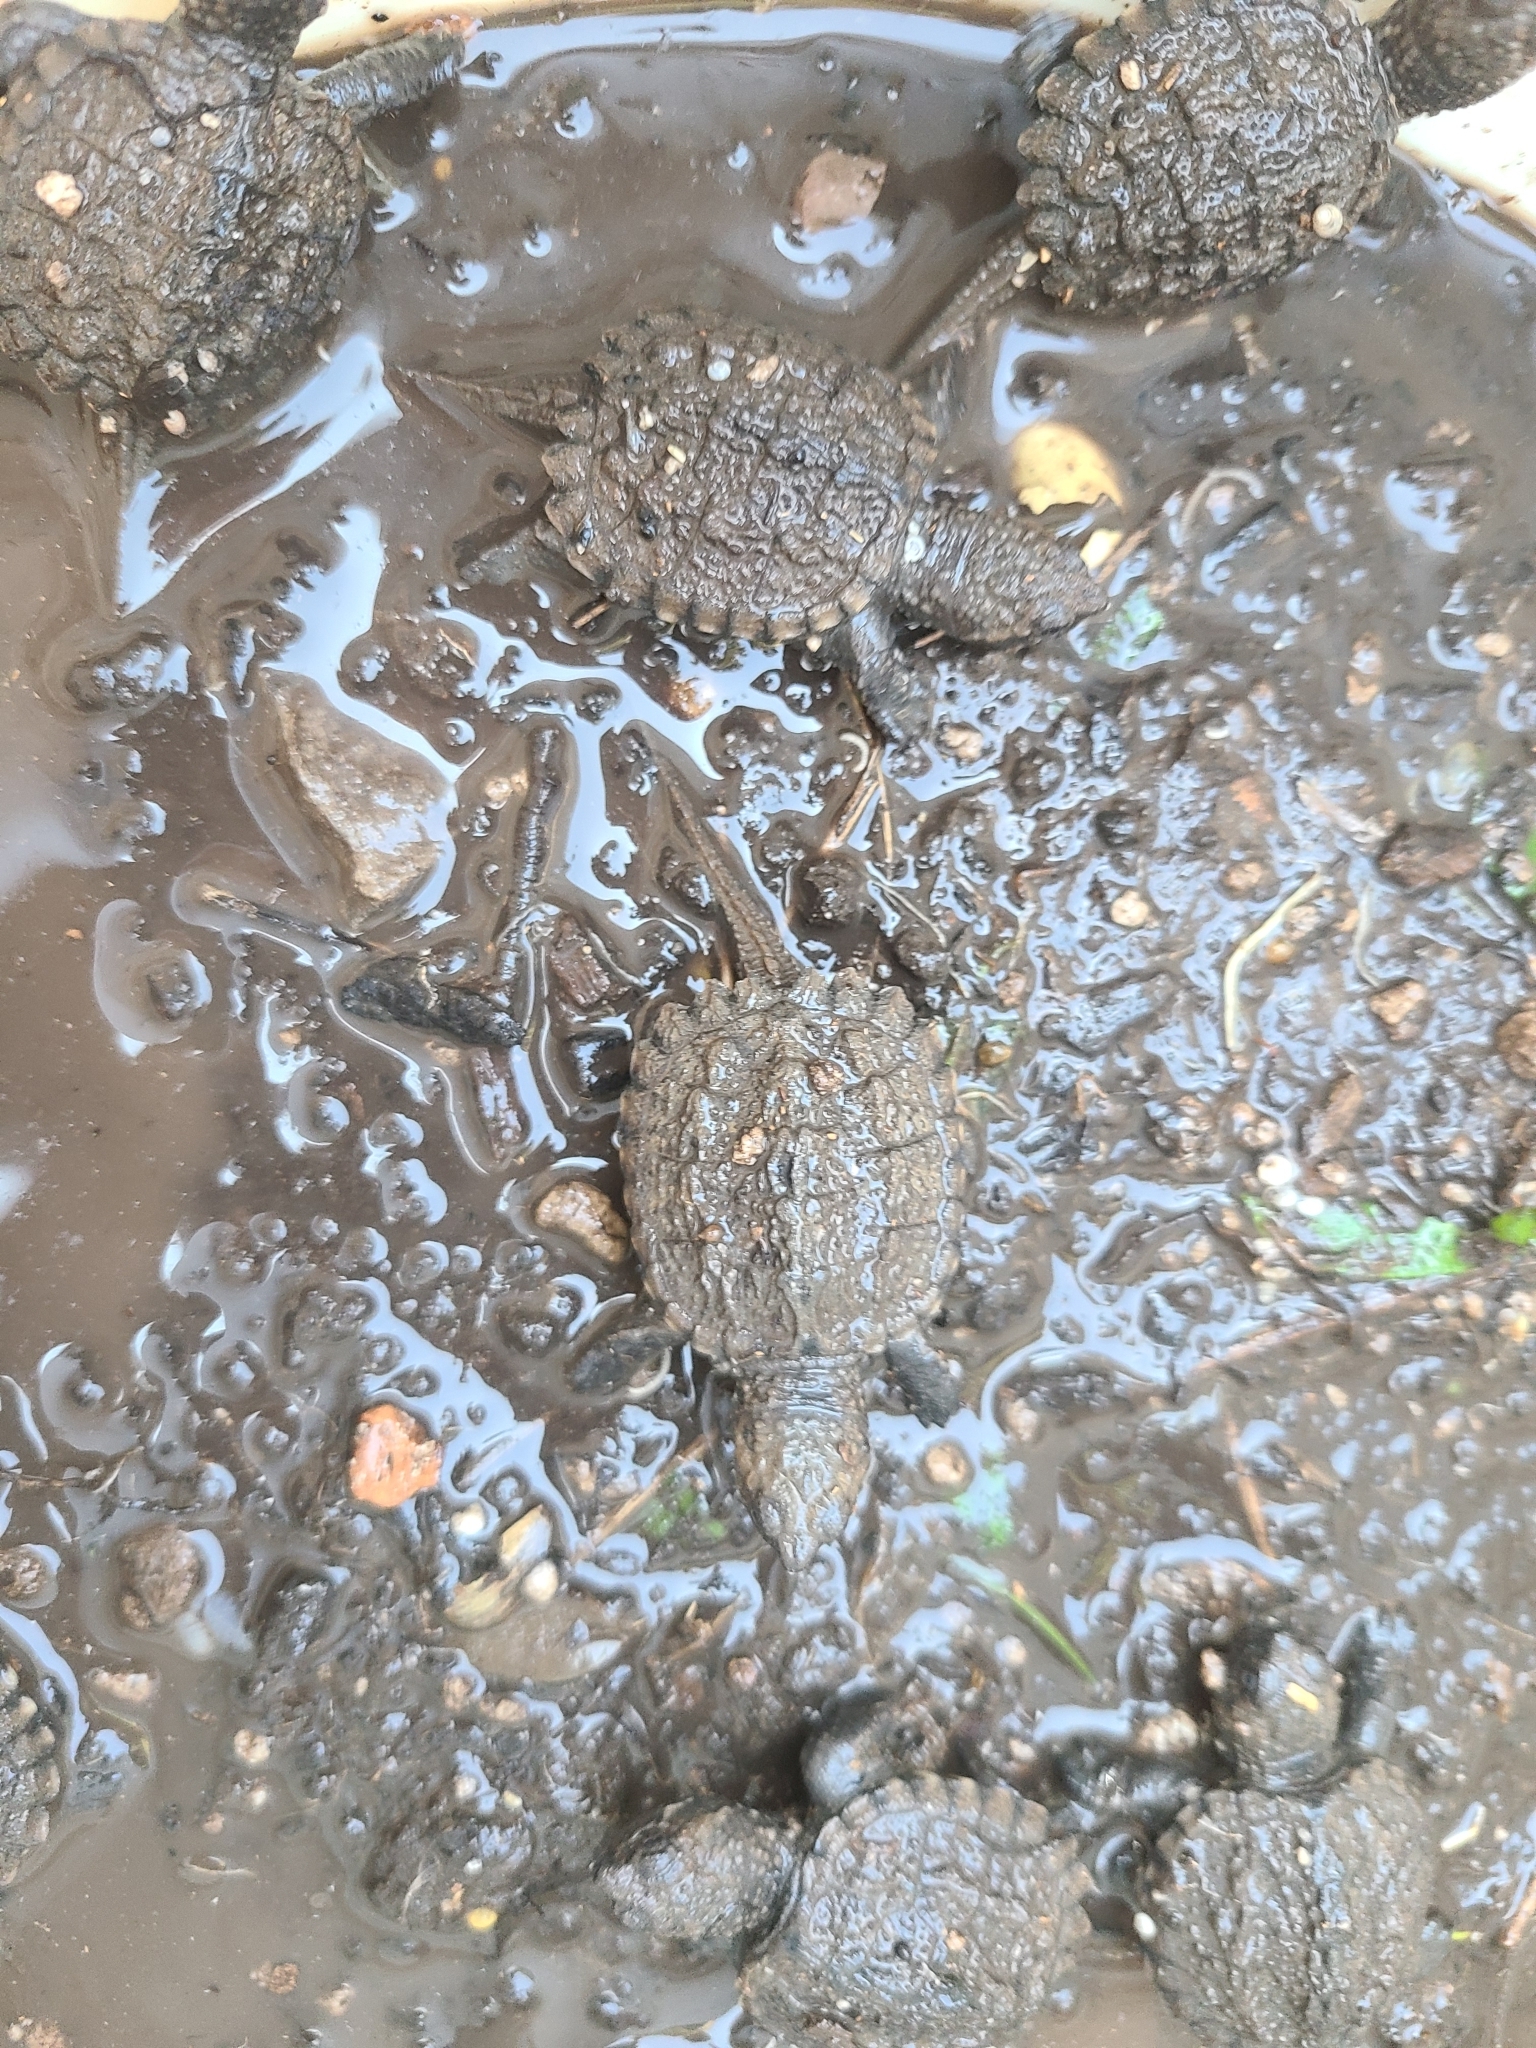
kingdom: Animalia
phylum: Chordata
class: Testudines
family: Chelydridae
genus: Chelydra
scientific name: Chelydra serpentina
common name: Common snapping turtle
